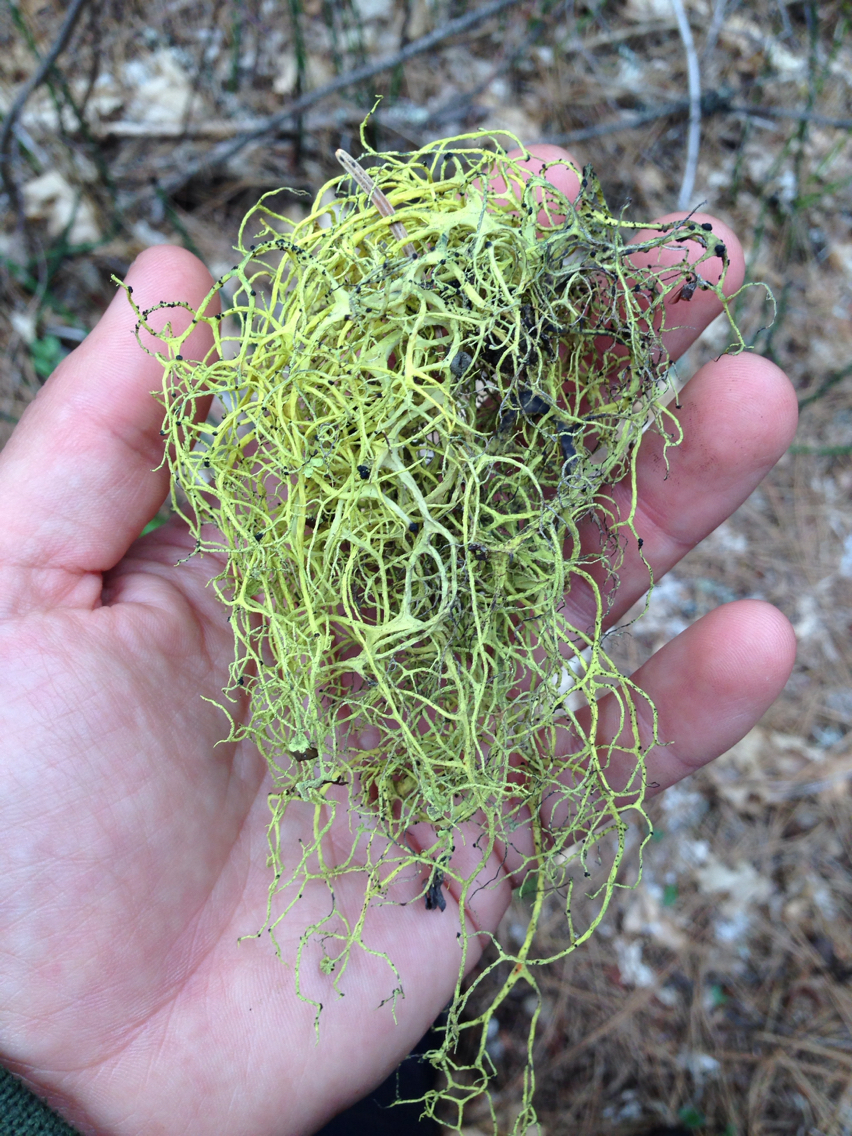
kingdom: Fungi
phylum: Ascomycota
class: Lecanoromycetes
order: Lecanorales
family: Parmeliaceae
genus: Letharia
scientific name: Letharia columbiana
